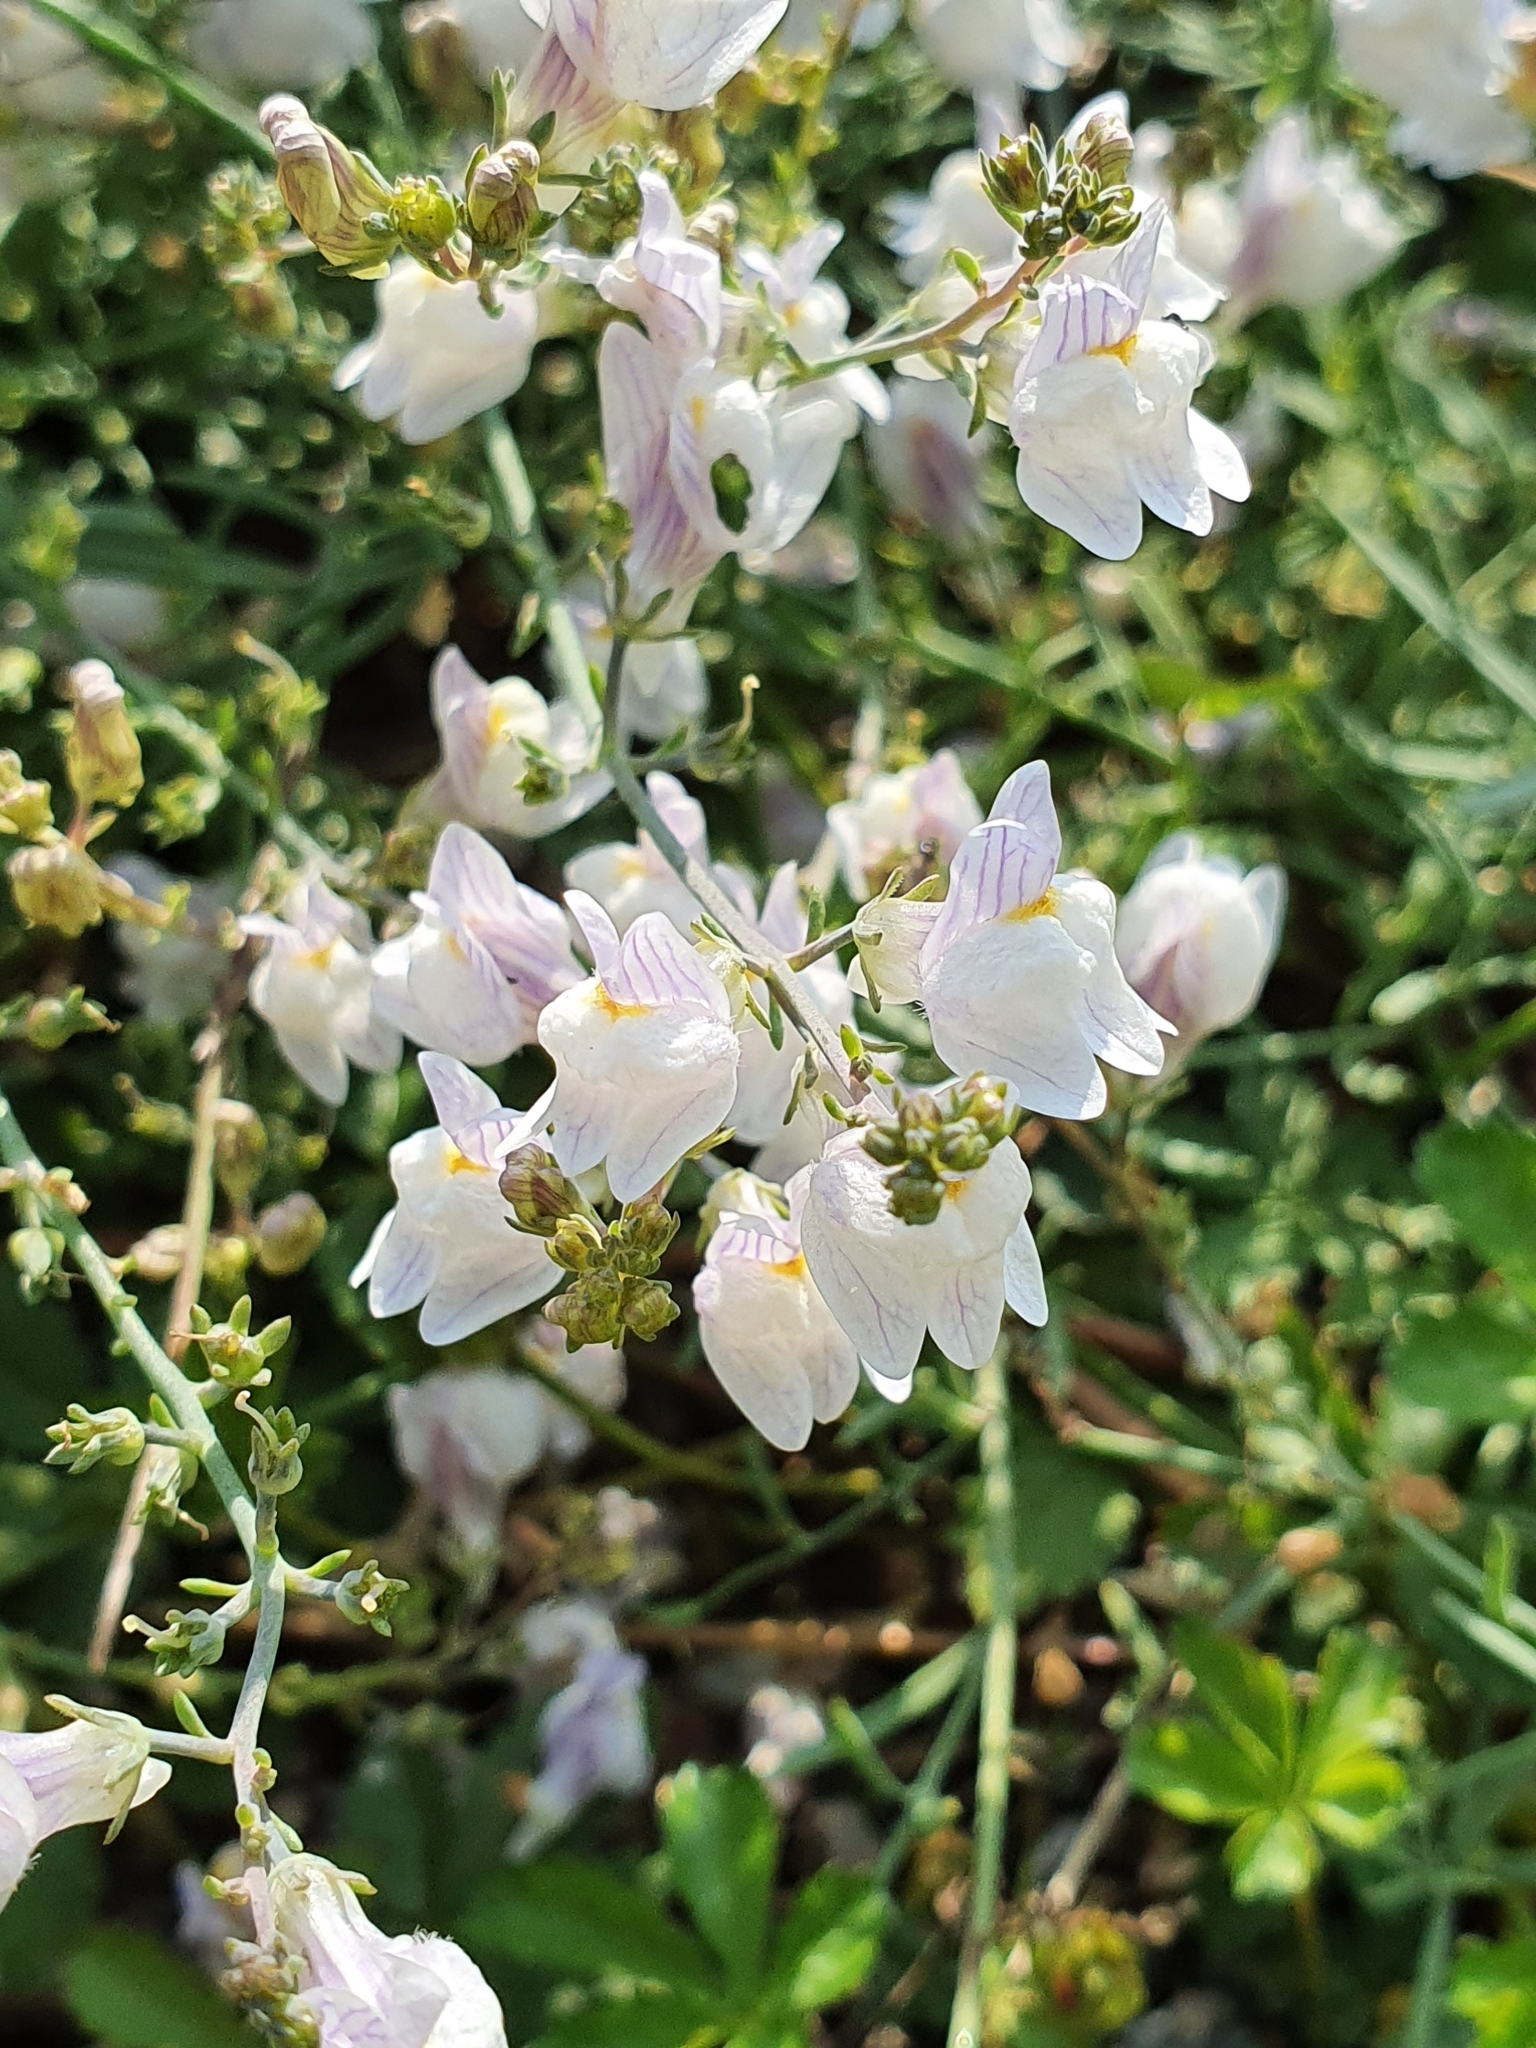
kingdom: Plantae
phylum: Tracheophyta
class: Magnoliopsida
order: Lamiales
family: Plantaginaceae
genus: Linaria
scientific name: Linaria repens
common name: Pale toadflax
